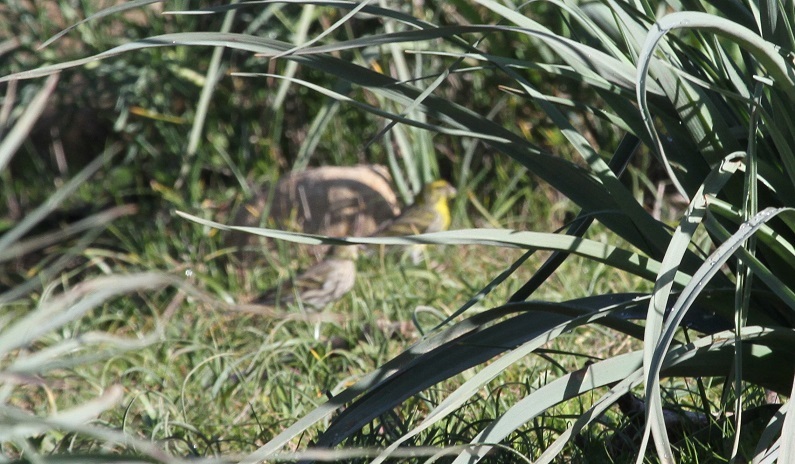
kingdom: Animalia
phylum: Chordata
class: Aves
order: Passeriformes
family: Fringillidae
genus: Serinus
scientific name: Serinus serinus
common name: European serin
